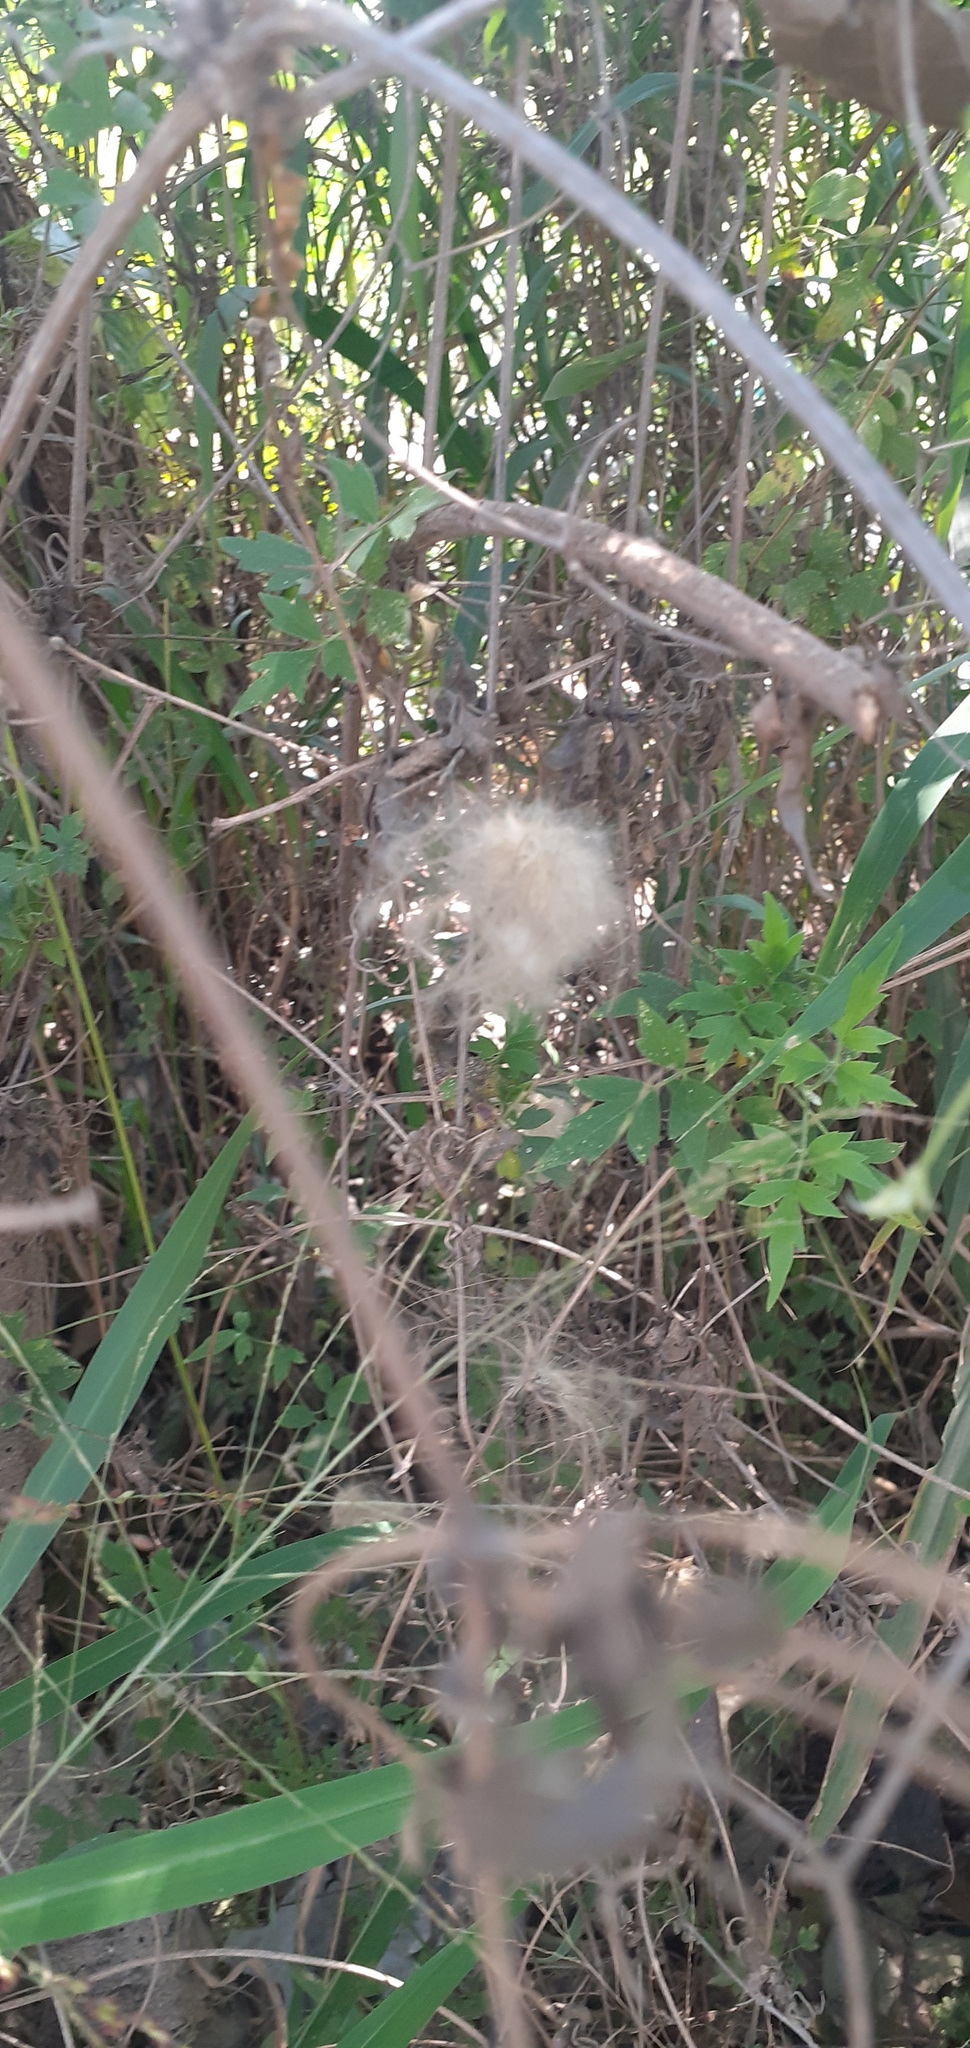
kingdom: Plantae
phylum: Tracheophyta
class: Magnoliopsida
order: Ranunculales
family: Ranunculaceae
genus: Clematis
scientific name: Clematis drummondii
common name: Texas virgin's bower
